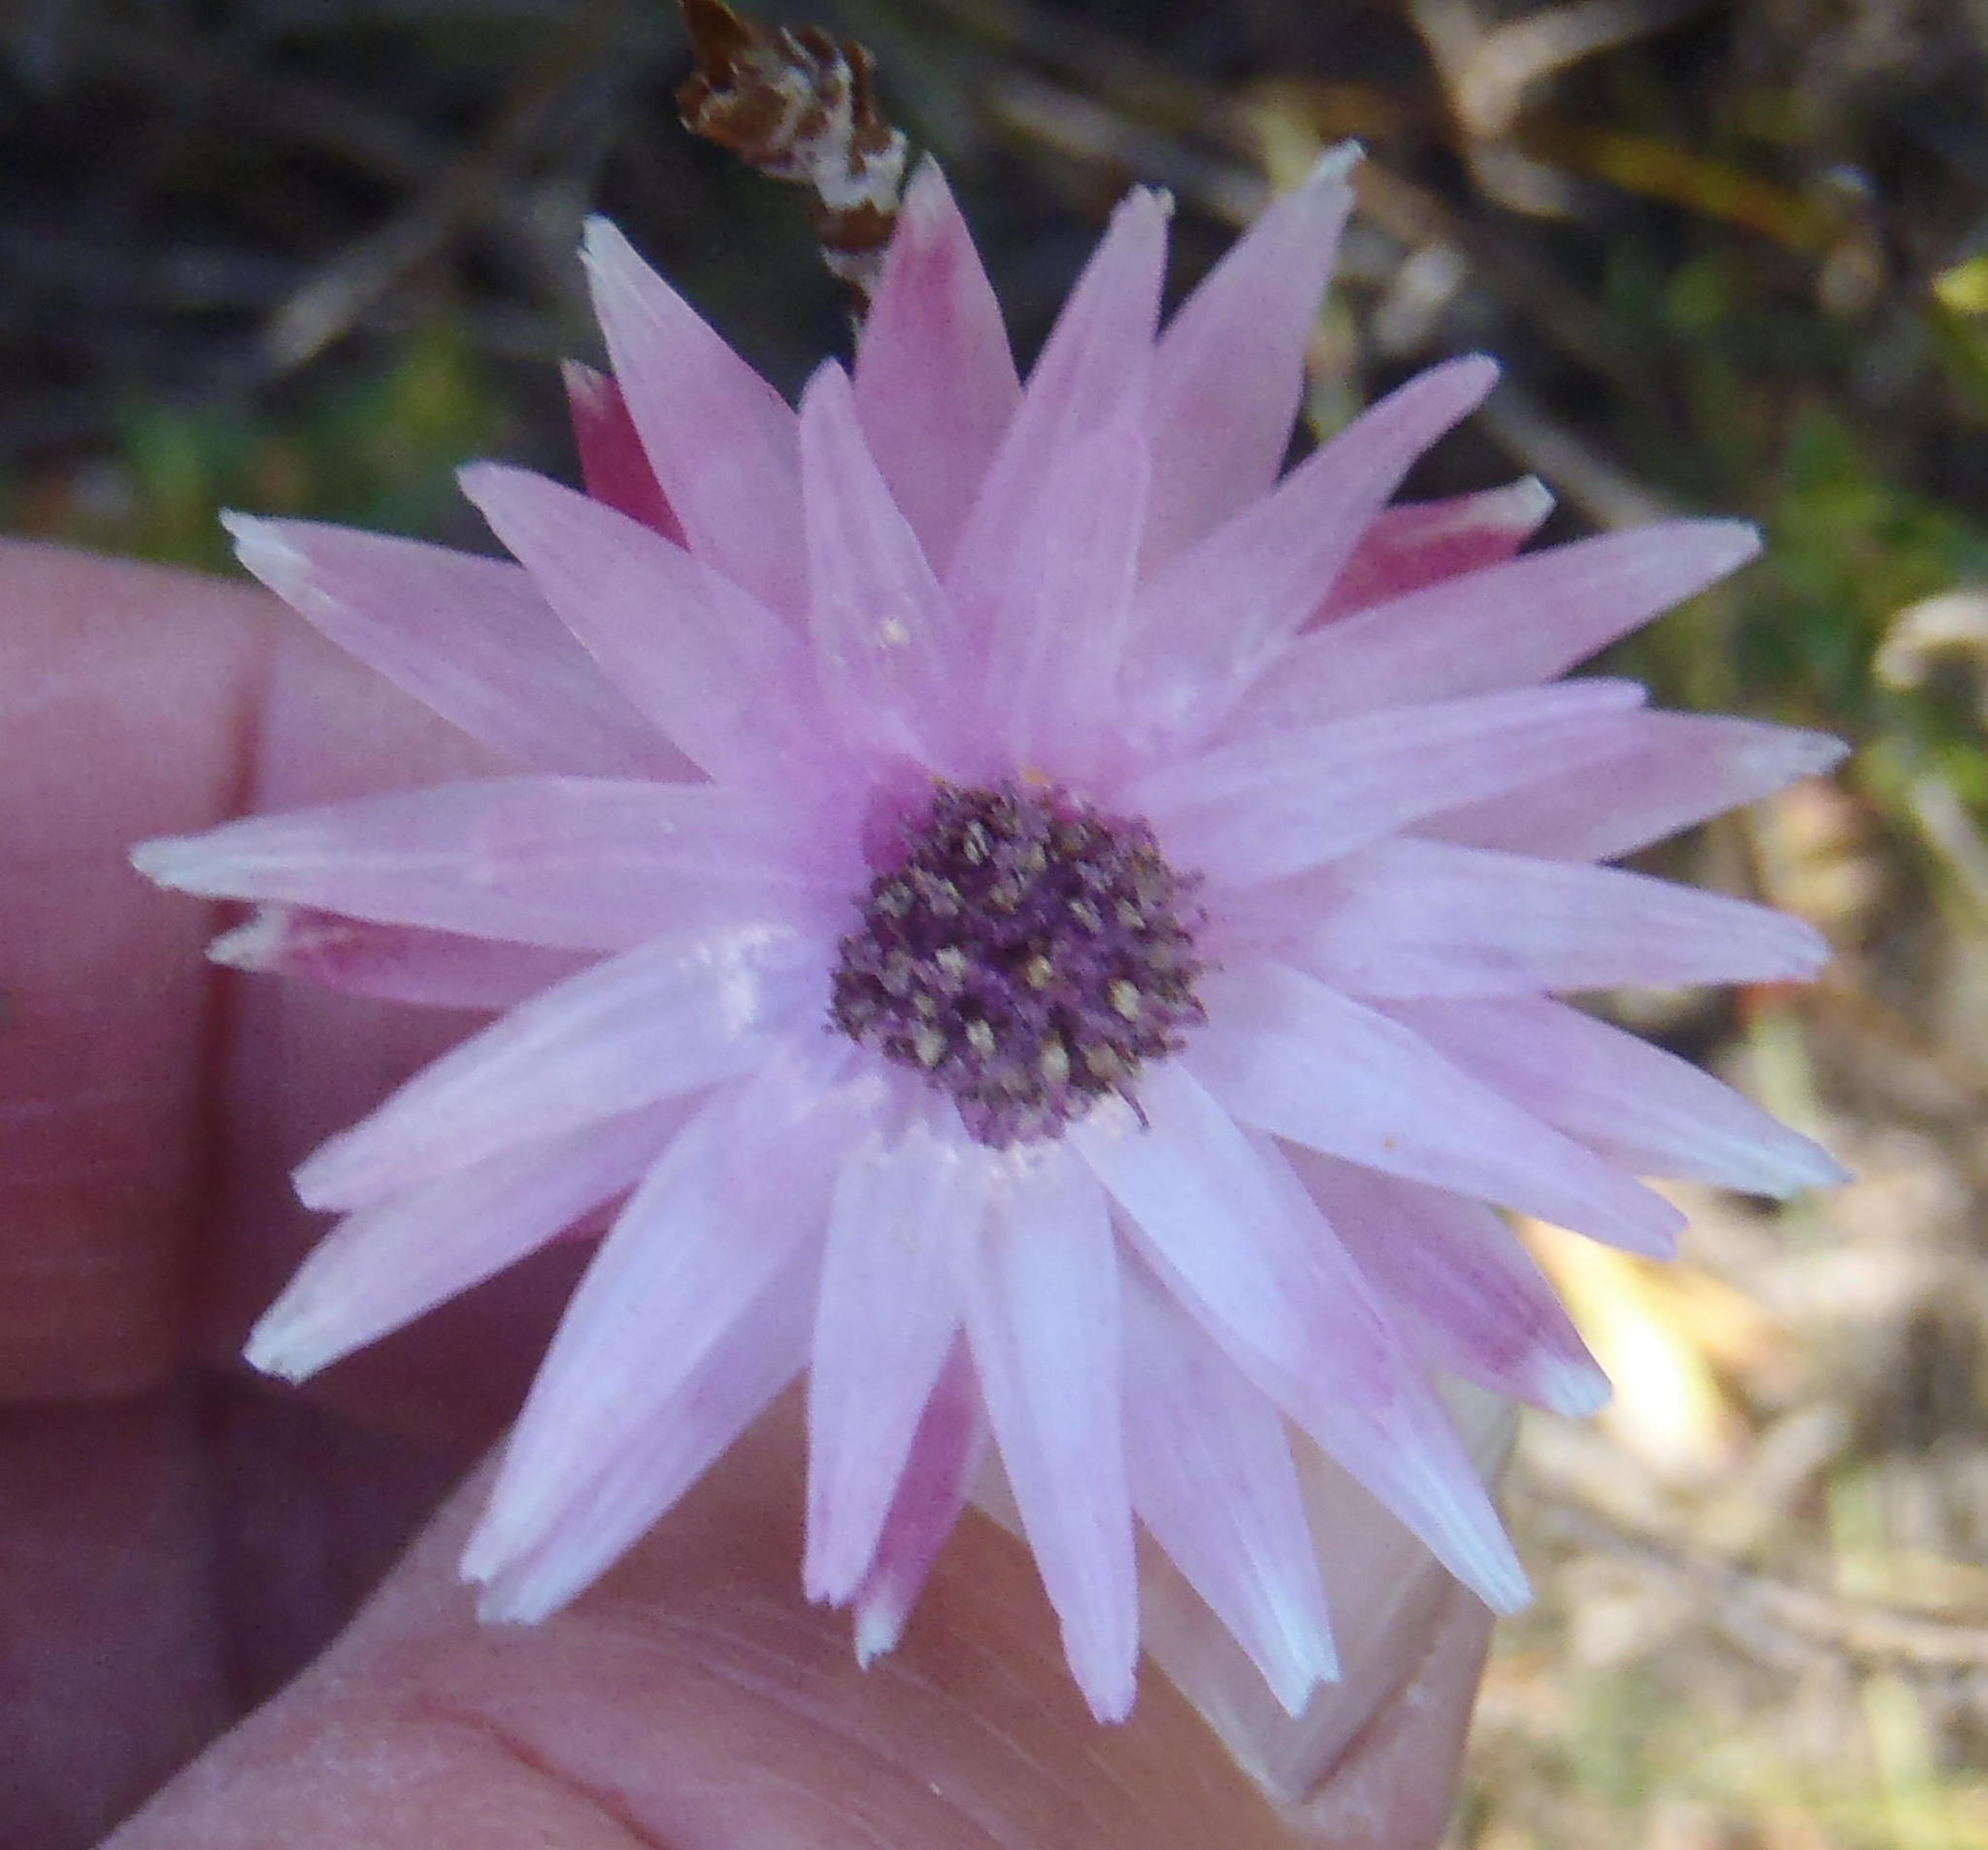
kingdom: Plantae
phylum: Tracheophyta
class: Magnoliopsida
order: Asterales
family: Asteraceae
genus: Syncarpha
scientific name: Syncarpha canescens
